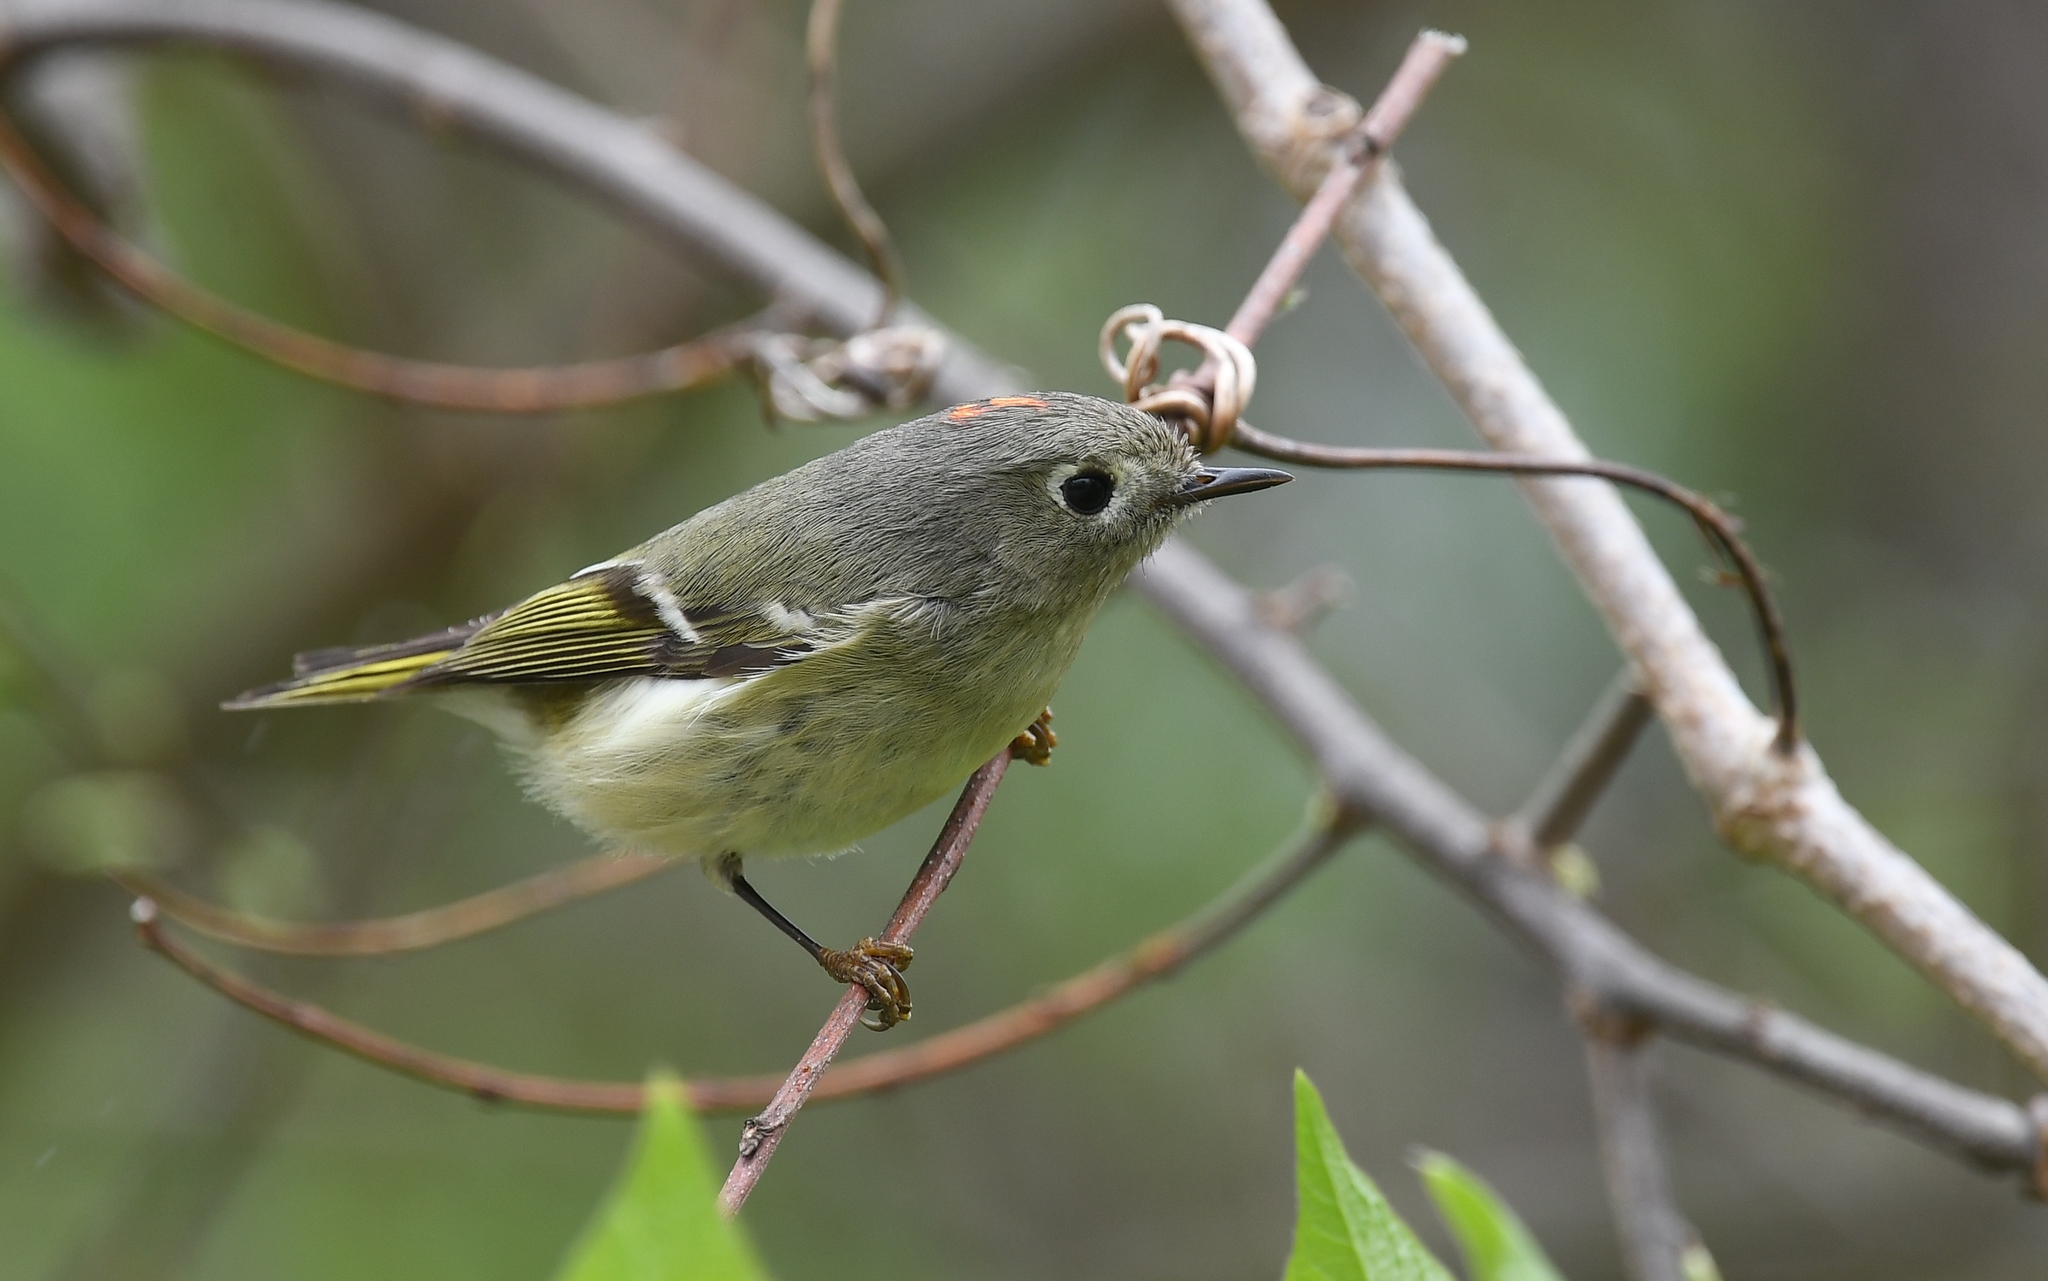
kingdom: Animalia
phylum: Chordata
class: Aves
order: Passeriformes
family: Regulidae
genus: Regulus
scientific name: Regulus calendula
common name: Ruby-crowned kinglet
